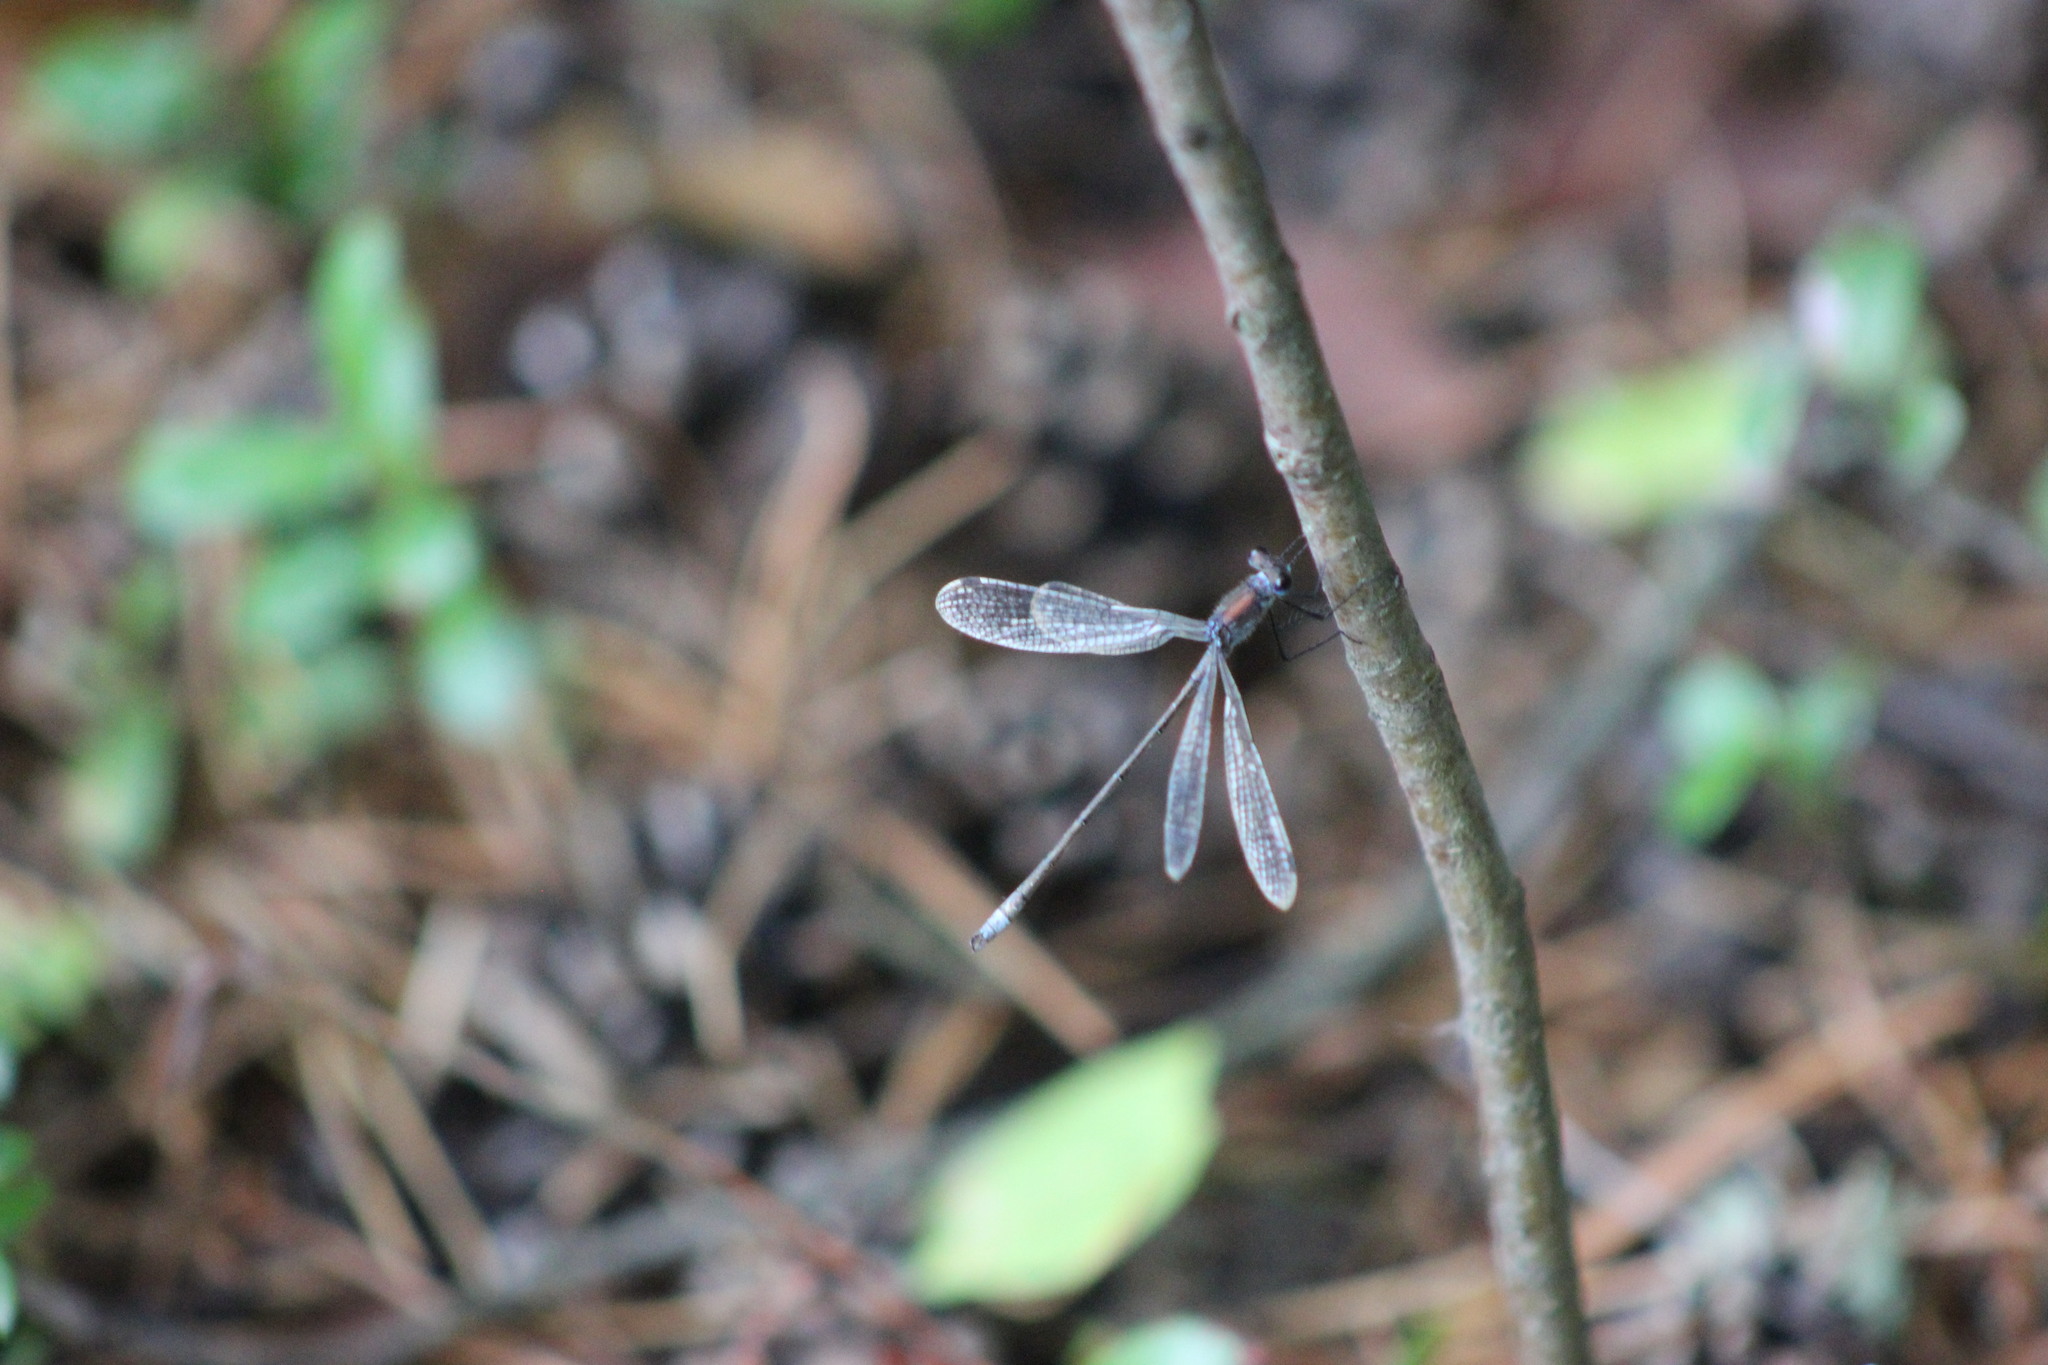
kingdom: Animalia
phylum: Arthropoda
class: Insecta
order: Odonata
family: Lestidae
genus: Lestes
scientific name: Lestes sponsa
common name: Common spreadwing
